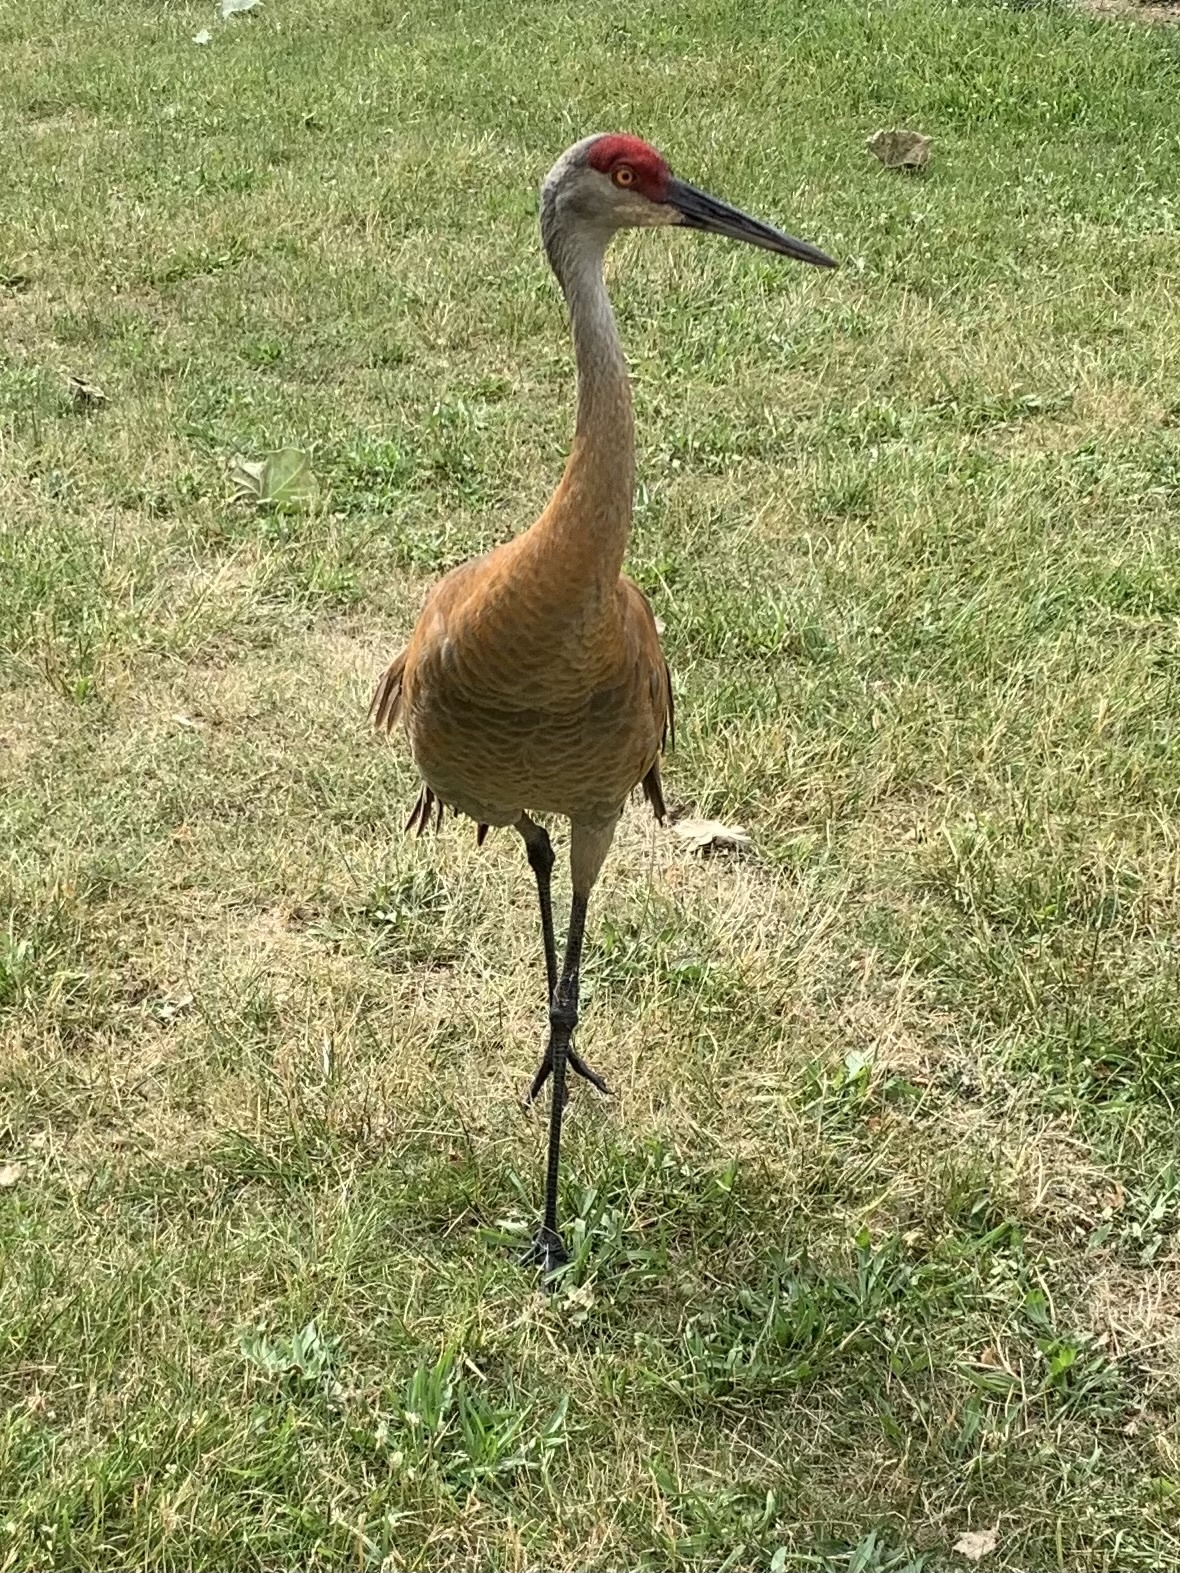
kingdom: Animalia
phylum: Chordata
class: Aves
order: Gruiformes
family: Gruidae
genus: Grus
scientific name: Grus canadensis
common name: Sandhill crane
